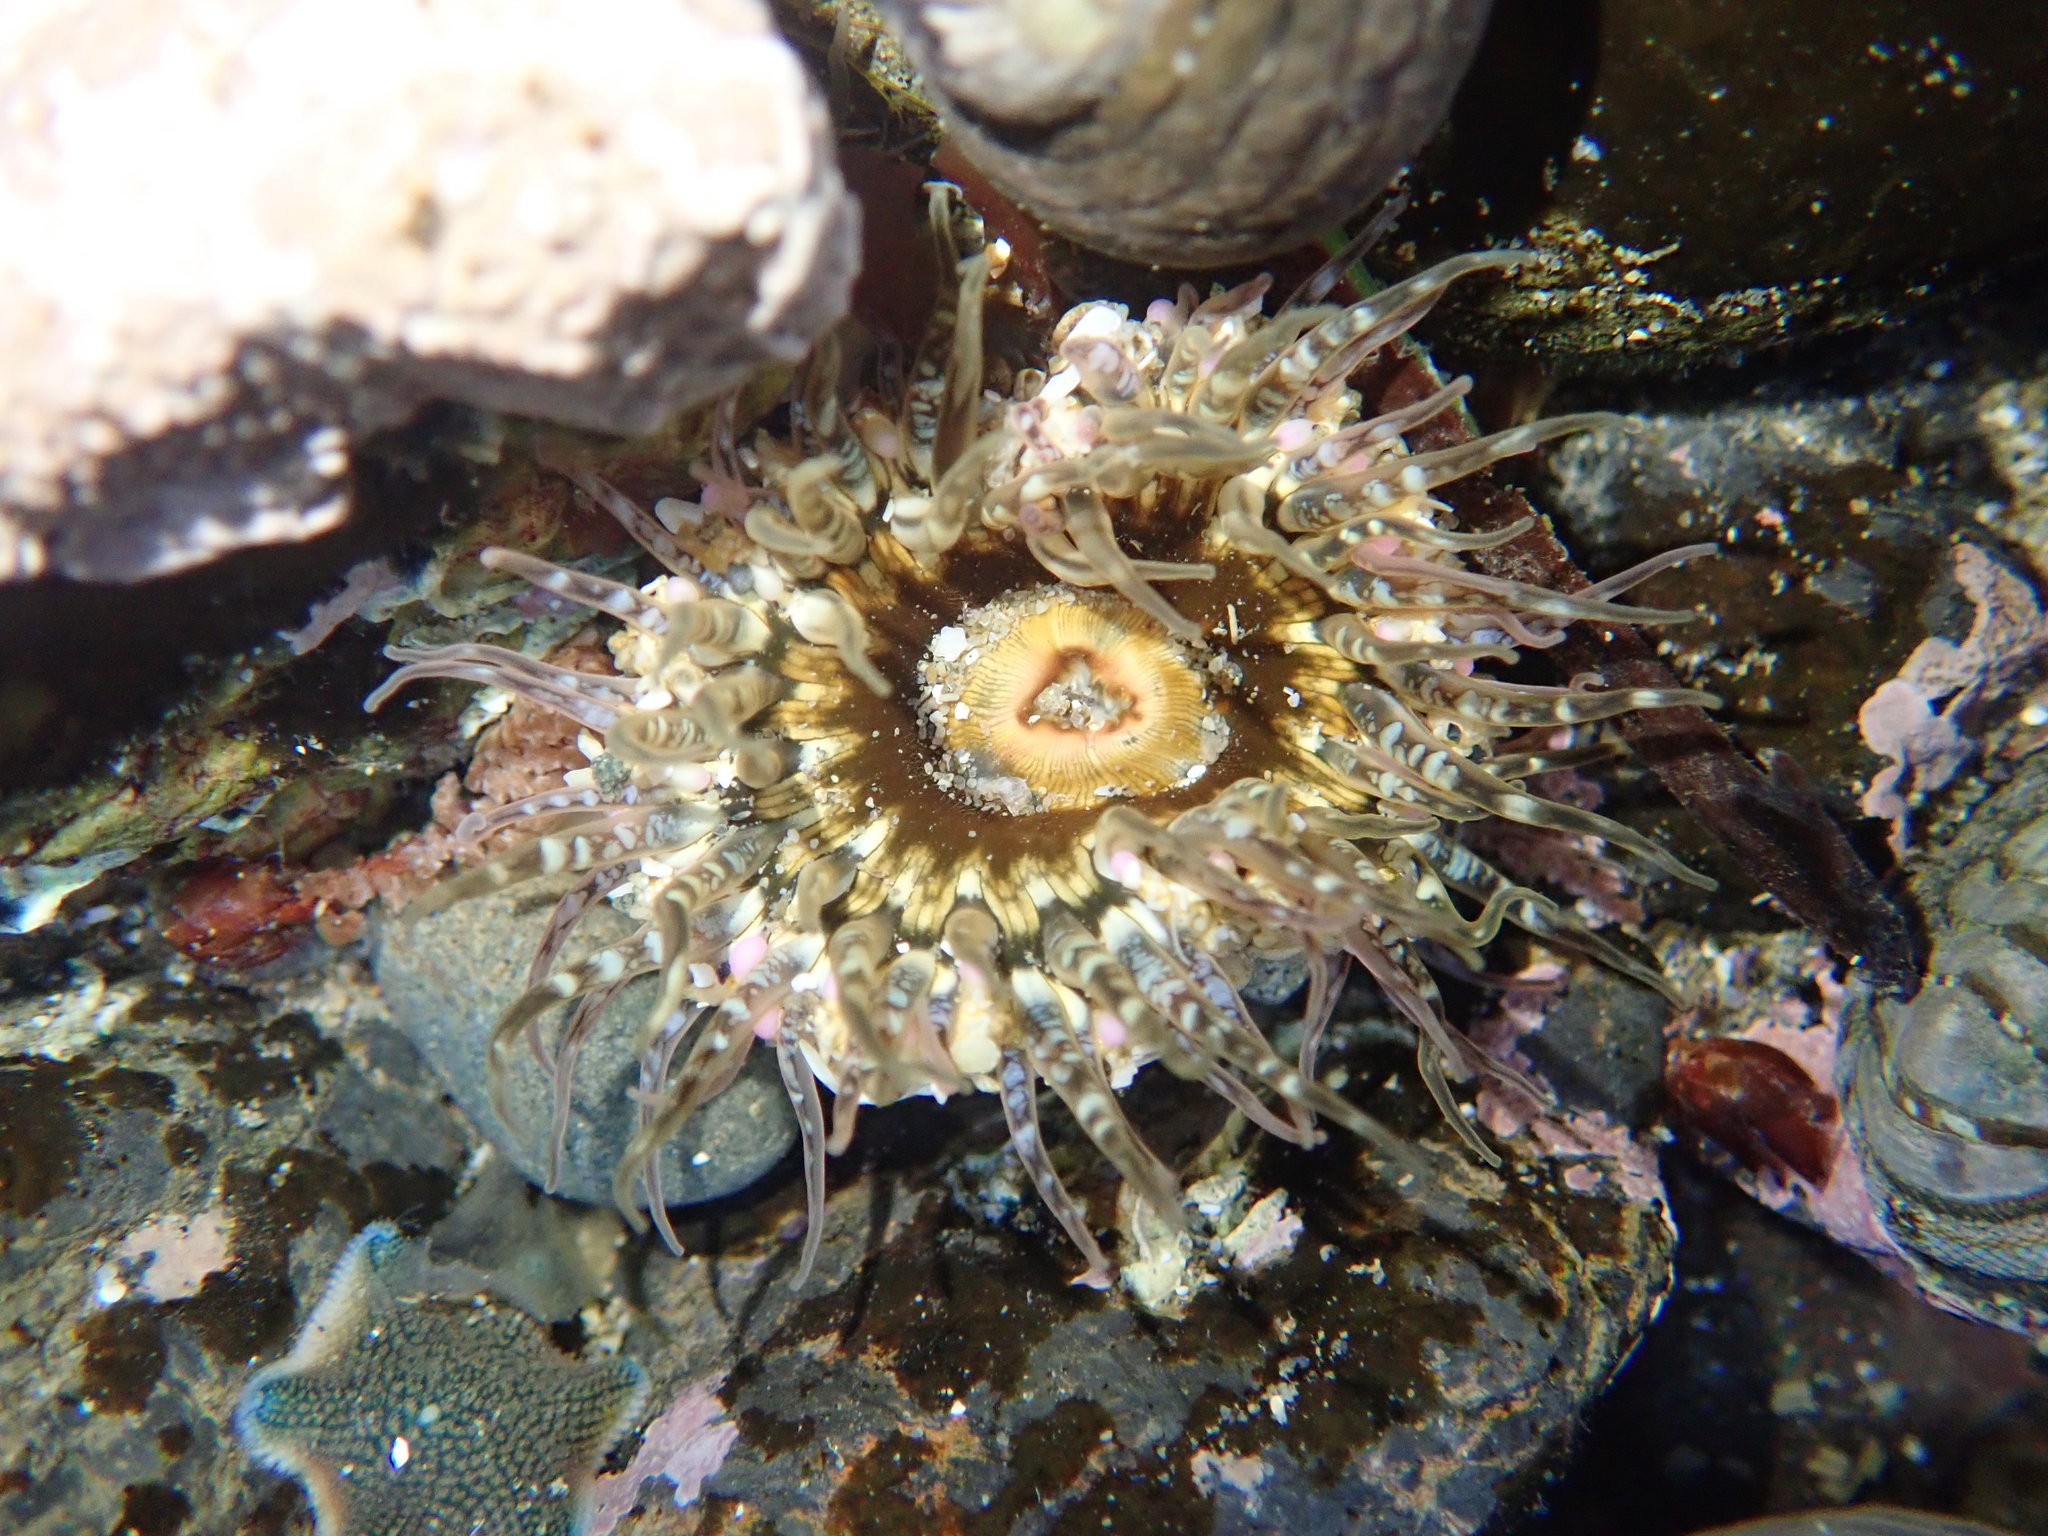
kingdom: Animalia
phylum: Cnidaria
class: Anthozoa
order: Actiniaria
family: Actiniidae
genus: Oulactis
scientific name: Oulactis muscosa
